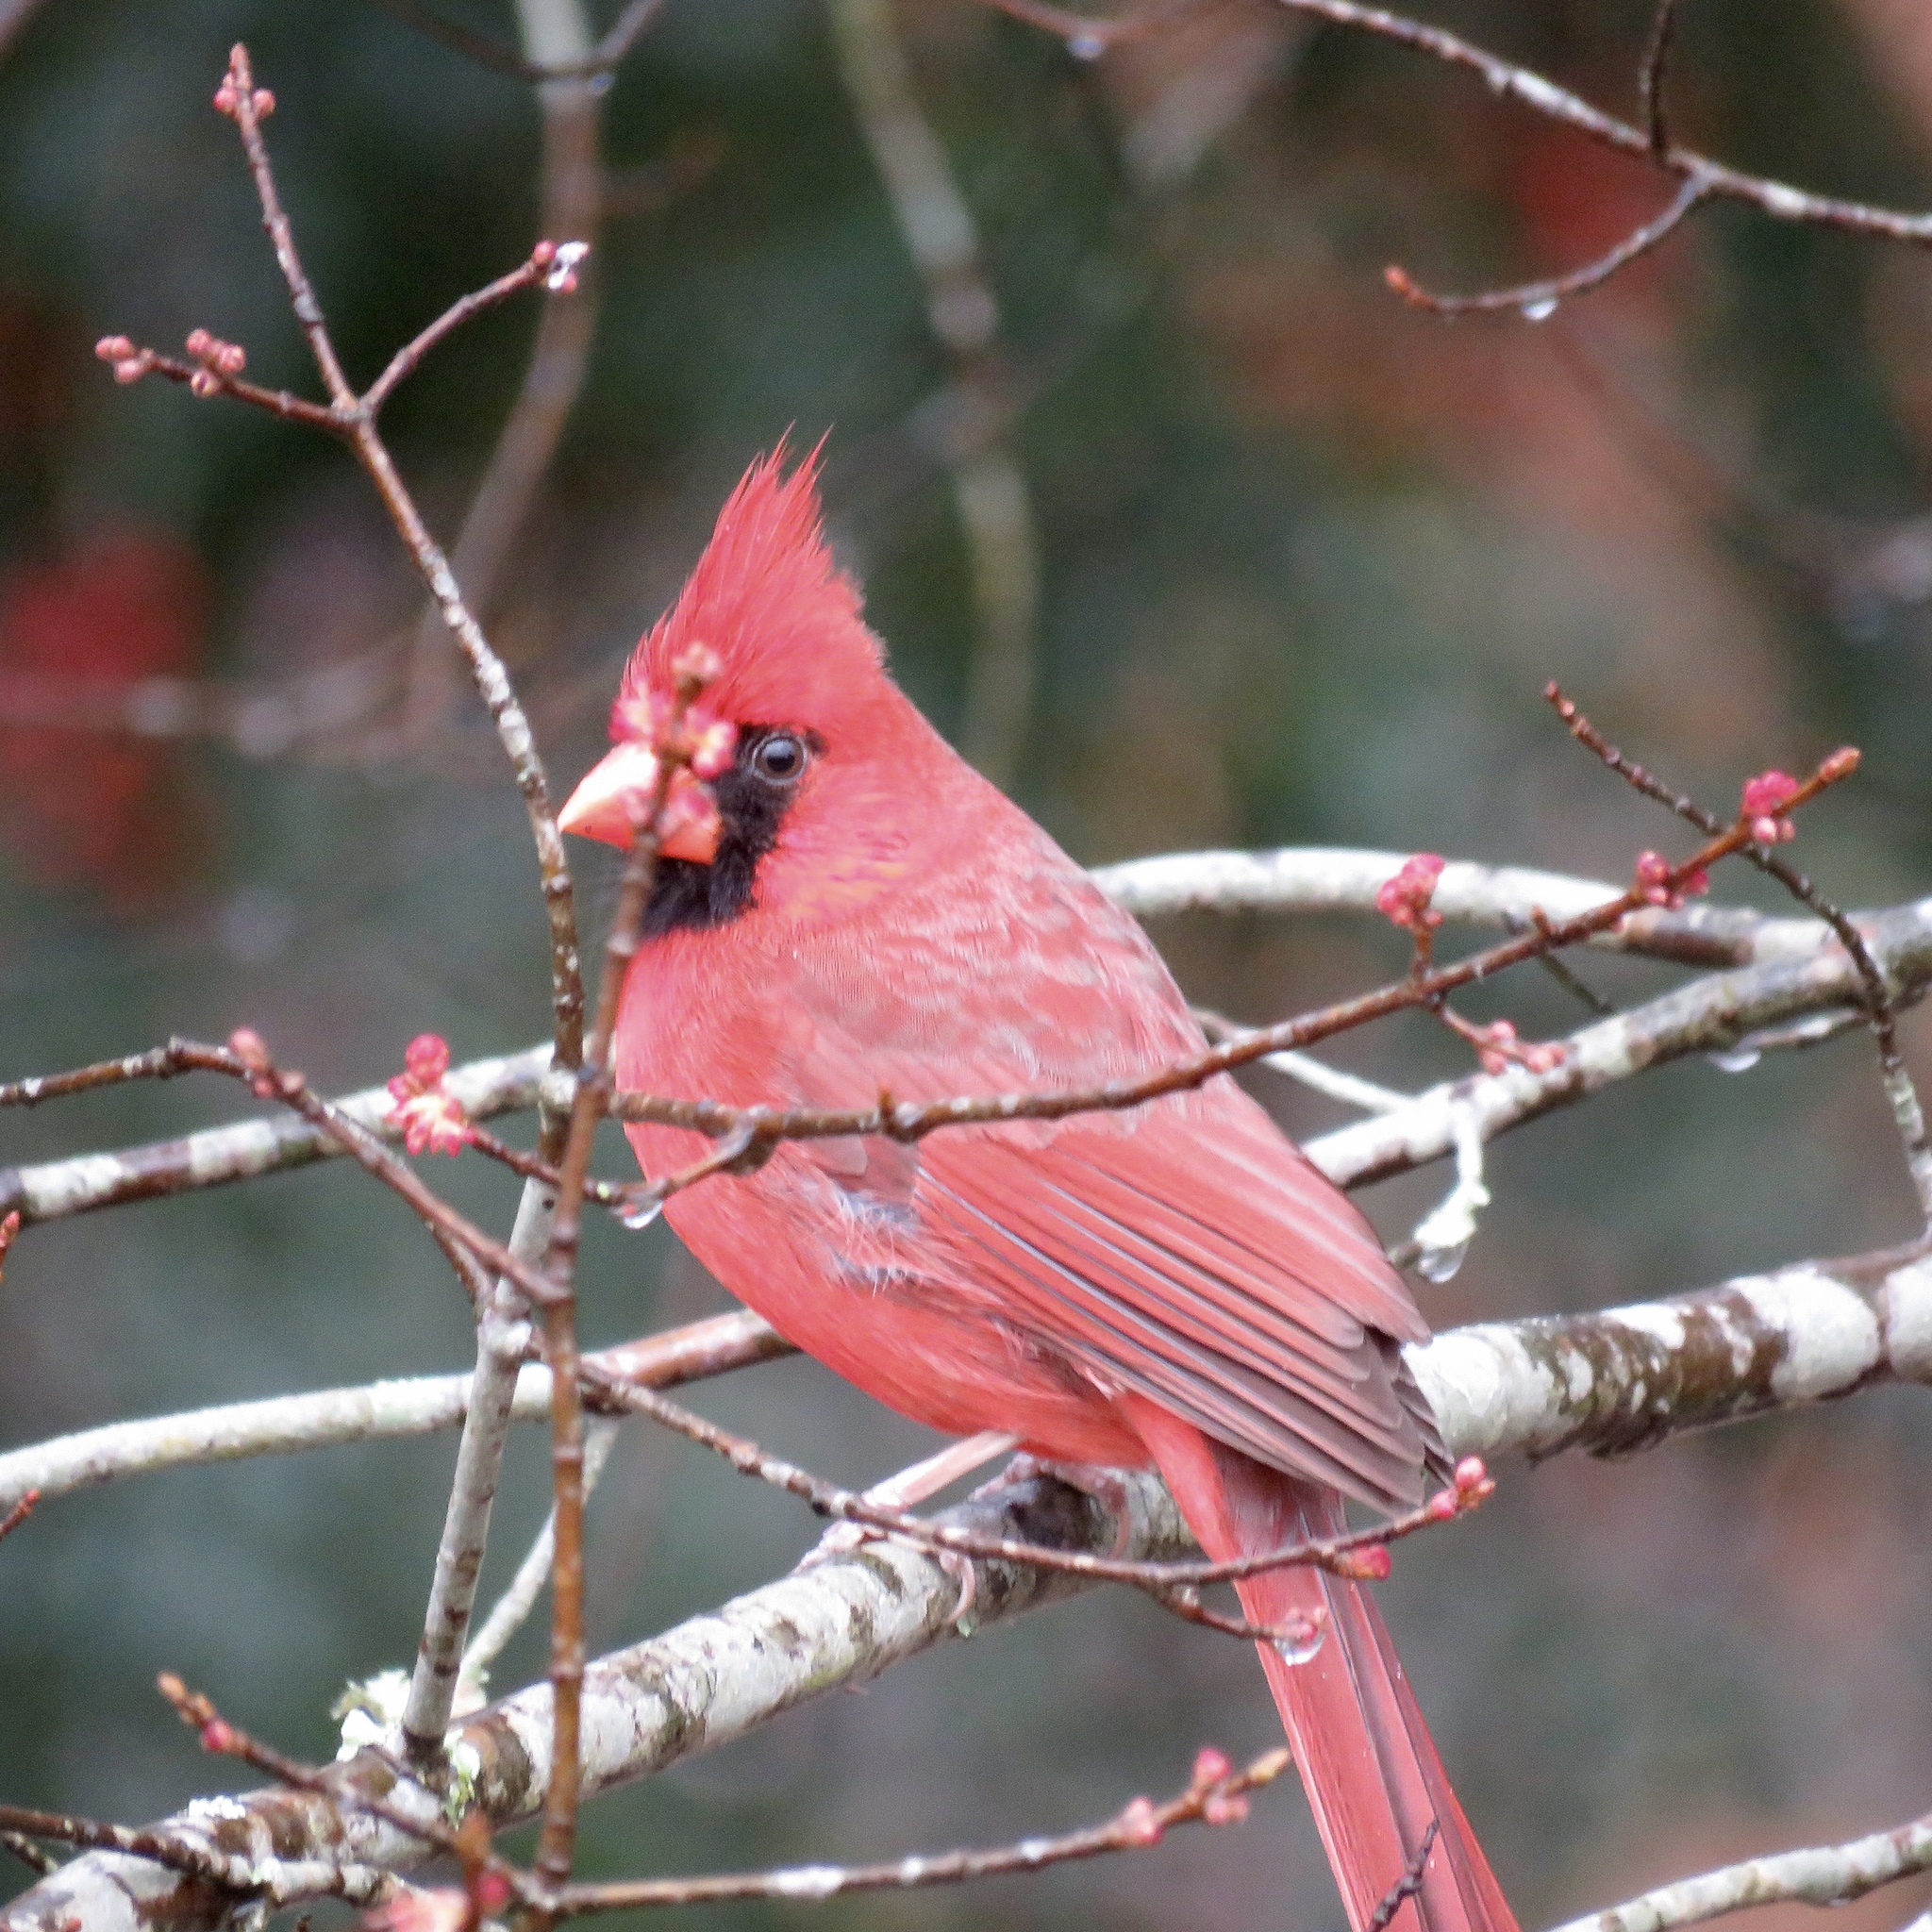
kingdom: Animalia
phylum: Chordata
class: Aves
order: Passeriformes
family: Cardinalidae
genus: Cardinalis
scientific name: Cardinalis cardinalis
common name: Northern cardinal
